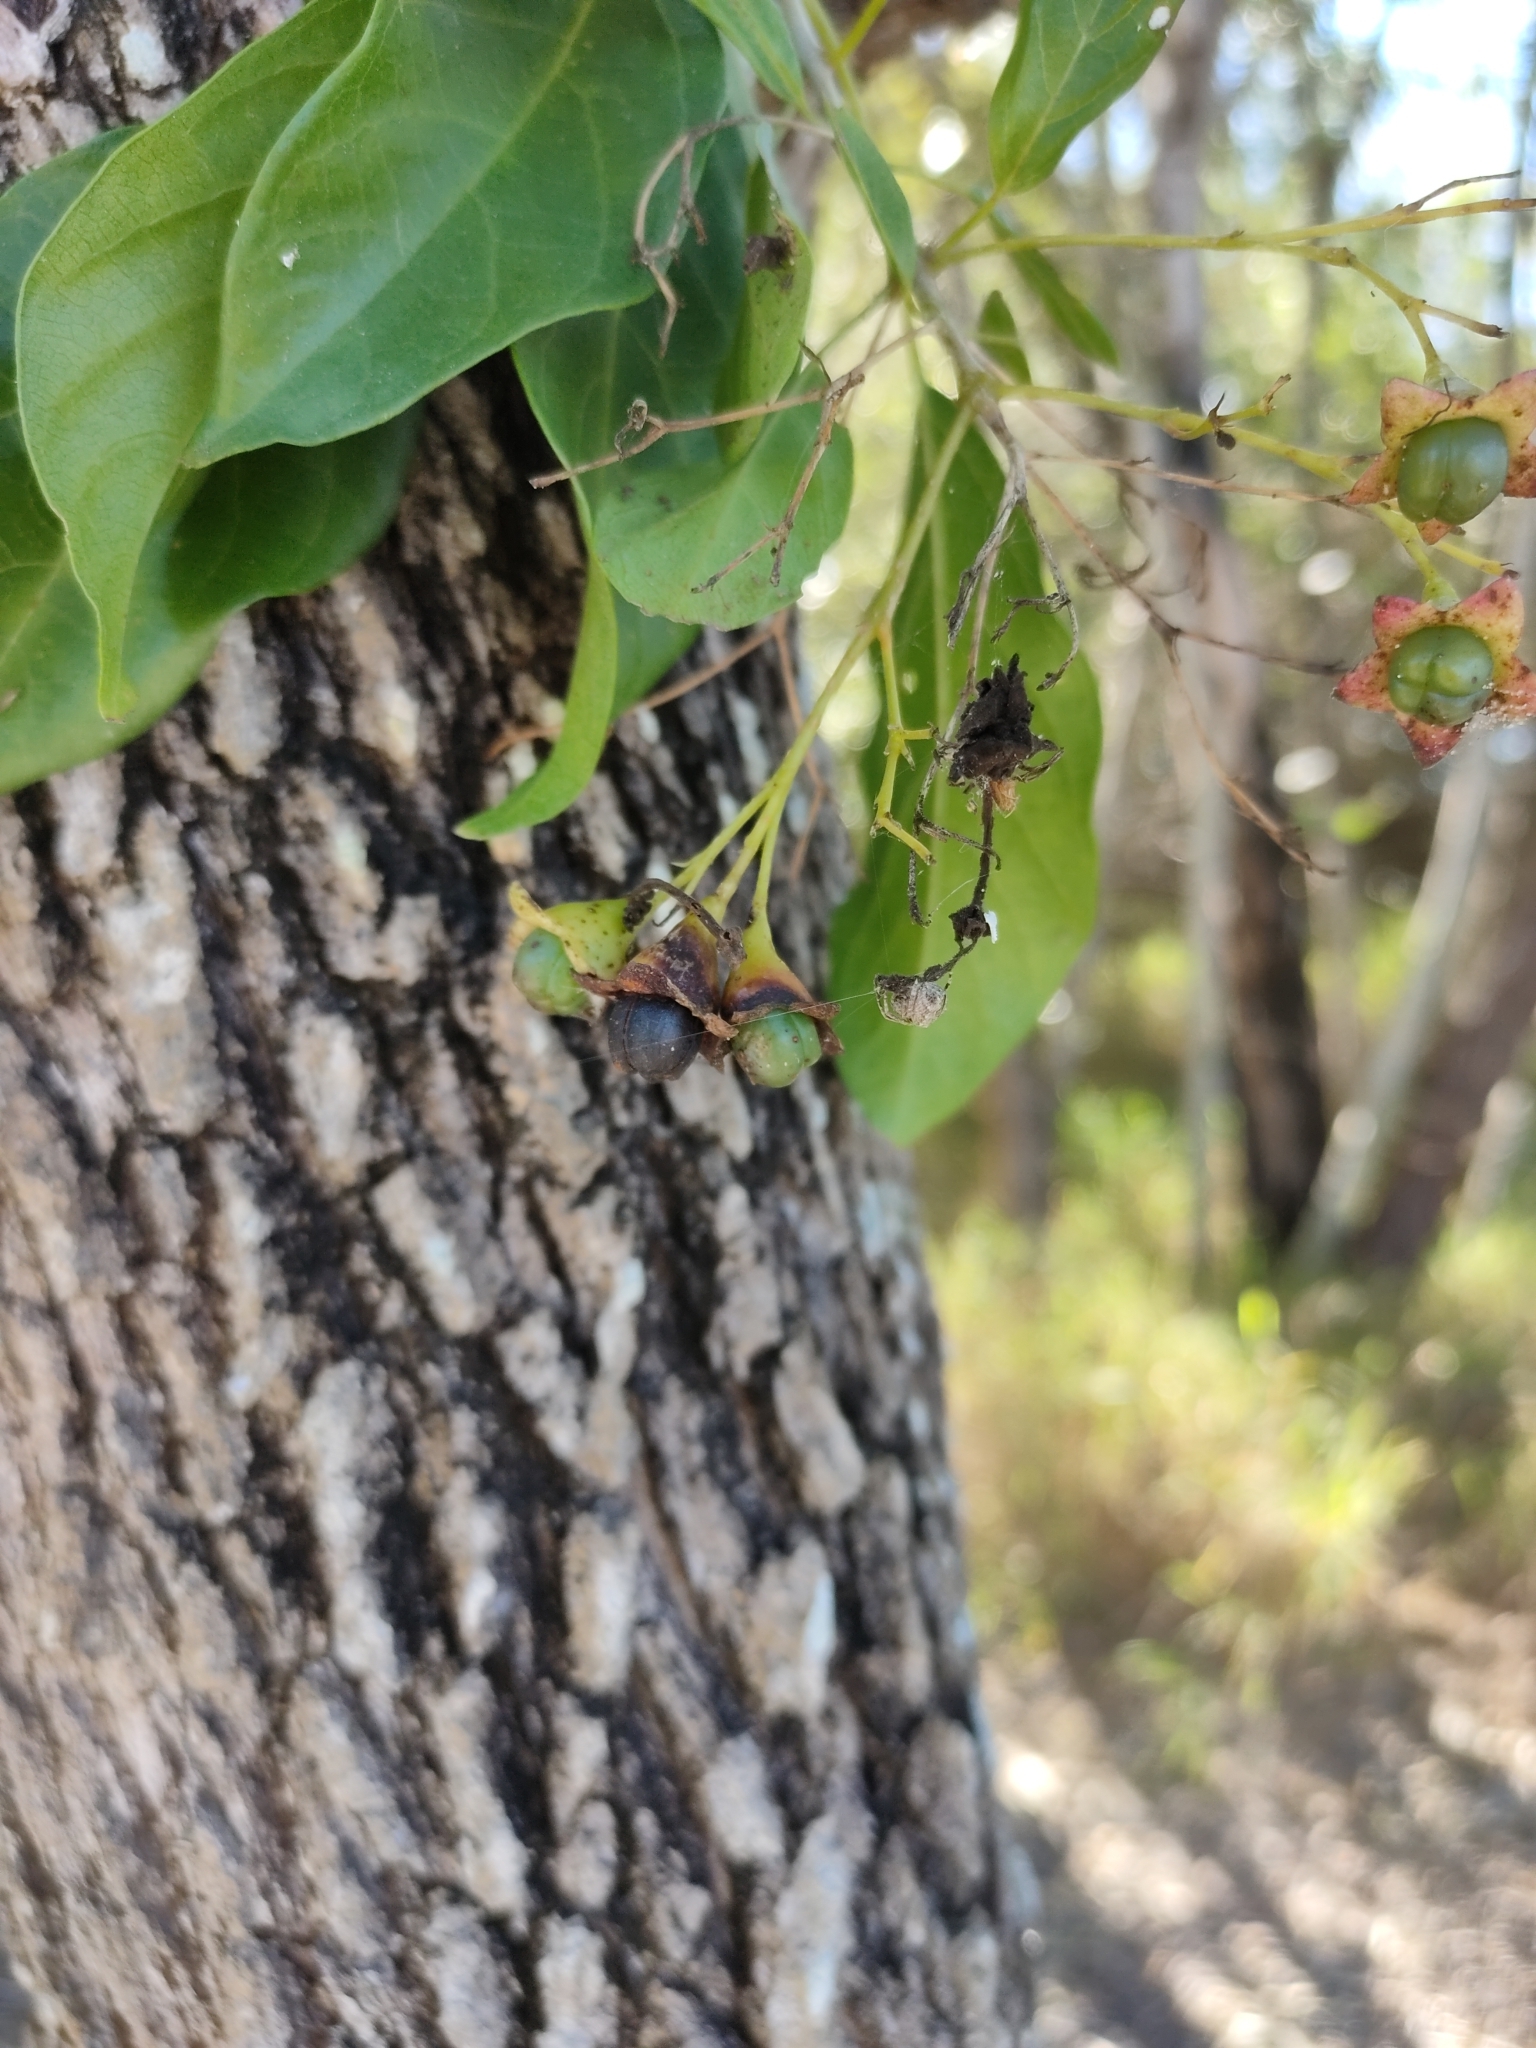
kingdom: Plantae
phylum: Tracheophyta
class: Magnoliopsida
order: Lamiales
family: Lamiaceae
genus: Clerodendrum
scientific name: Clerodendrum floribundum
